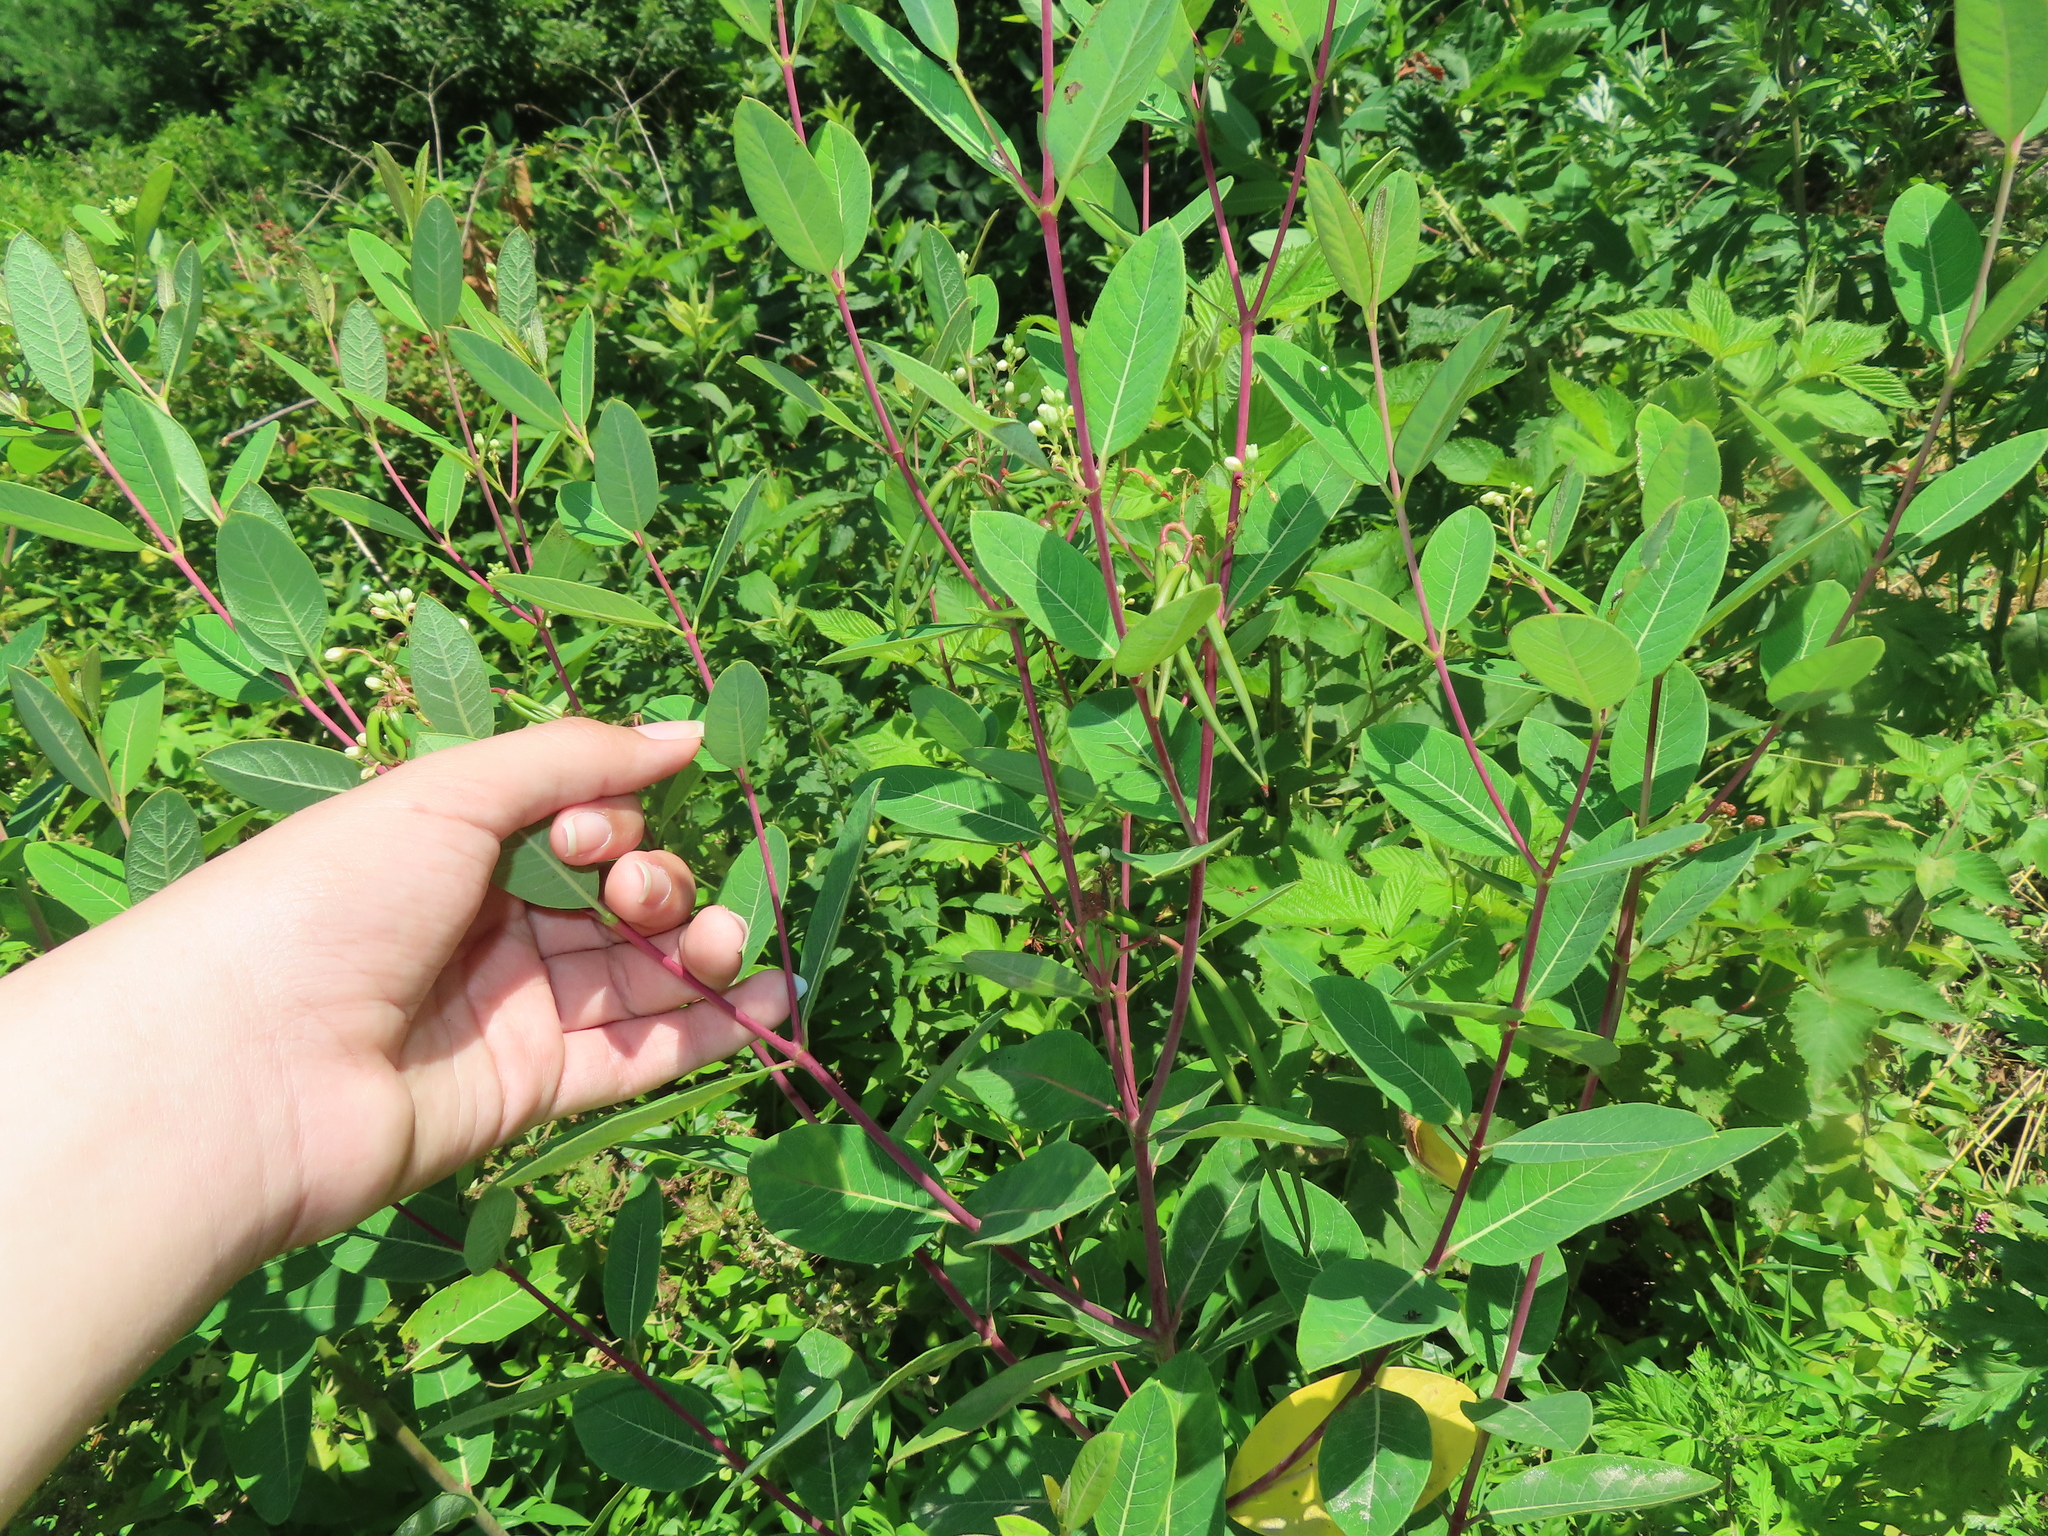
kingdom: Plantae
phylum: Tracheophyta
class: Magnoliopsida
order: Gentianales
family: Apocynaceae
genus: Apocynum
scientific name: Apocynum cannabinum
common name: Hemp dogbane
